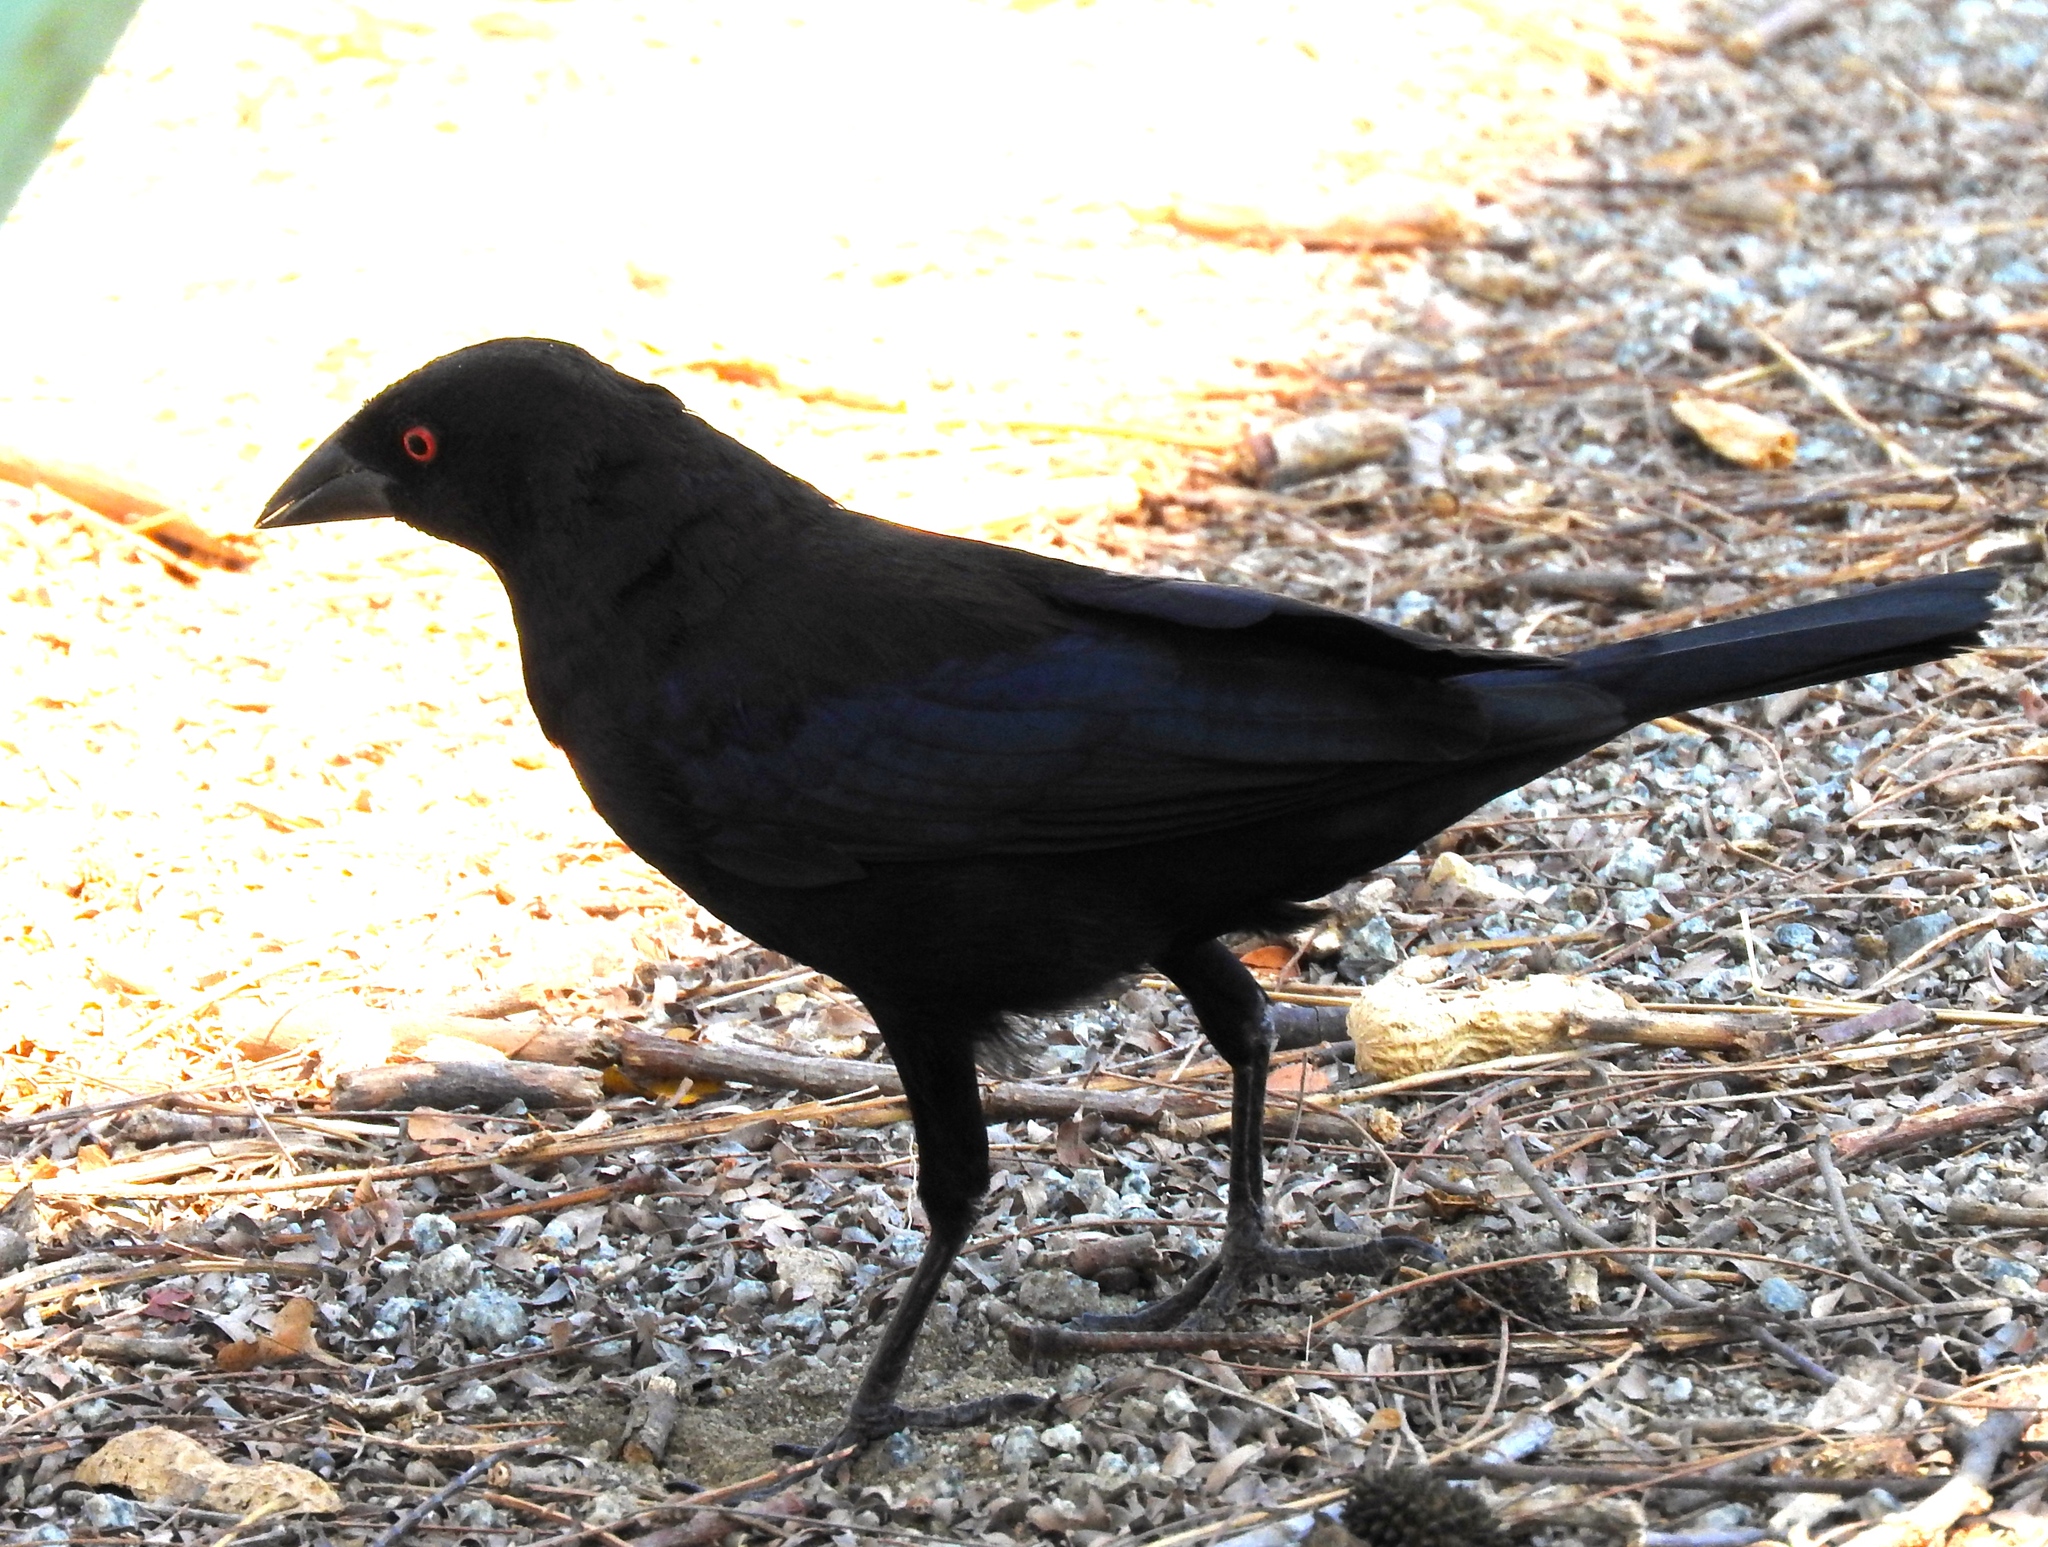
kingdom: Animalia
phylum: Chordata
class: Aves
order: Passeriformes
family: Icteridae
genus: Molothrus
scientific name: Molothrus aeneus
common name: Bronzed cowbird
